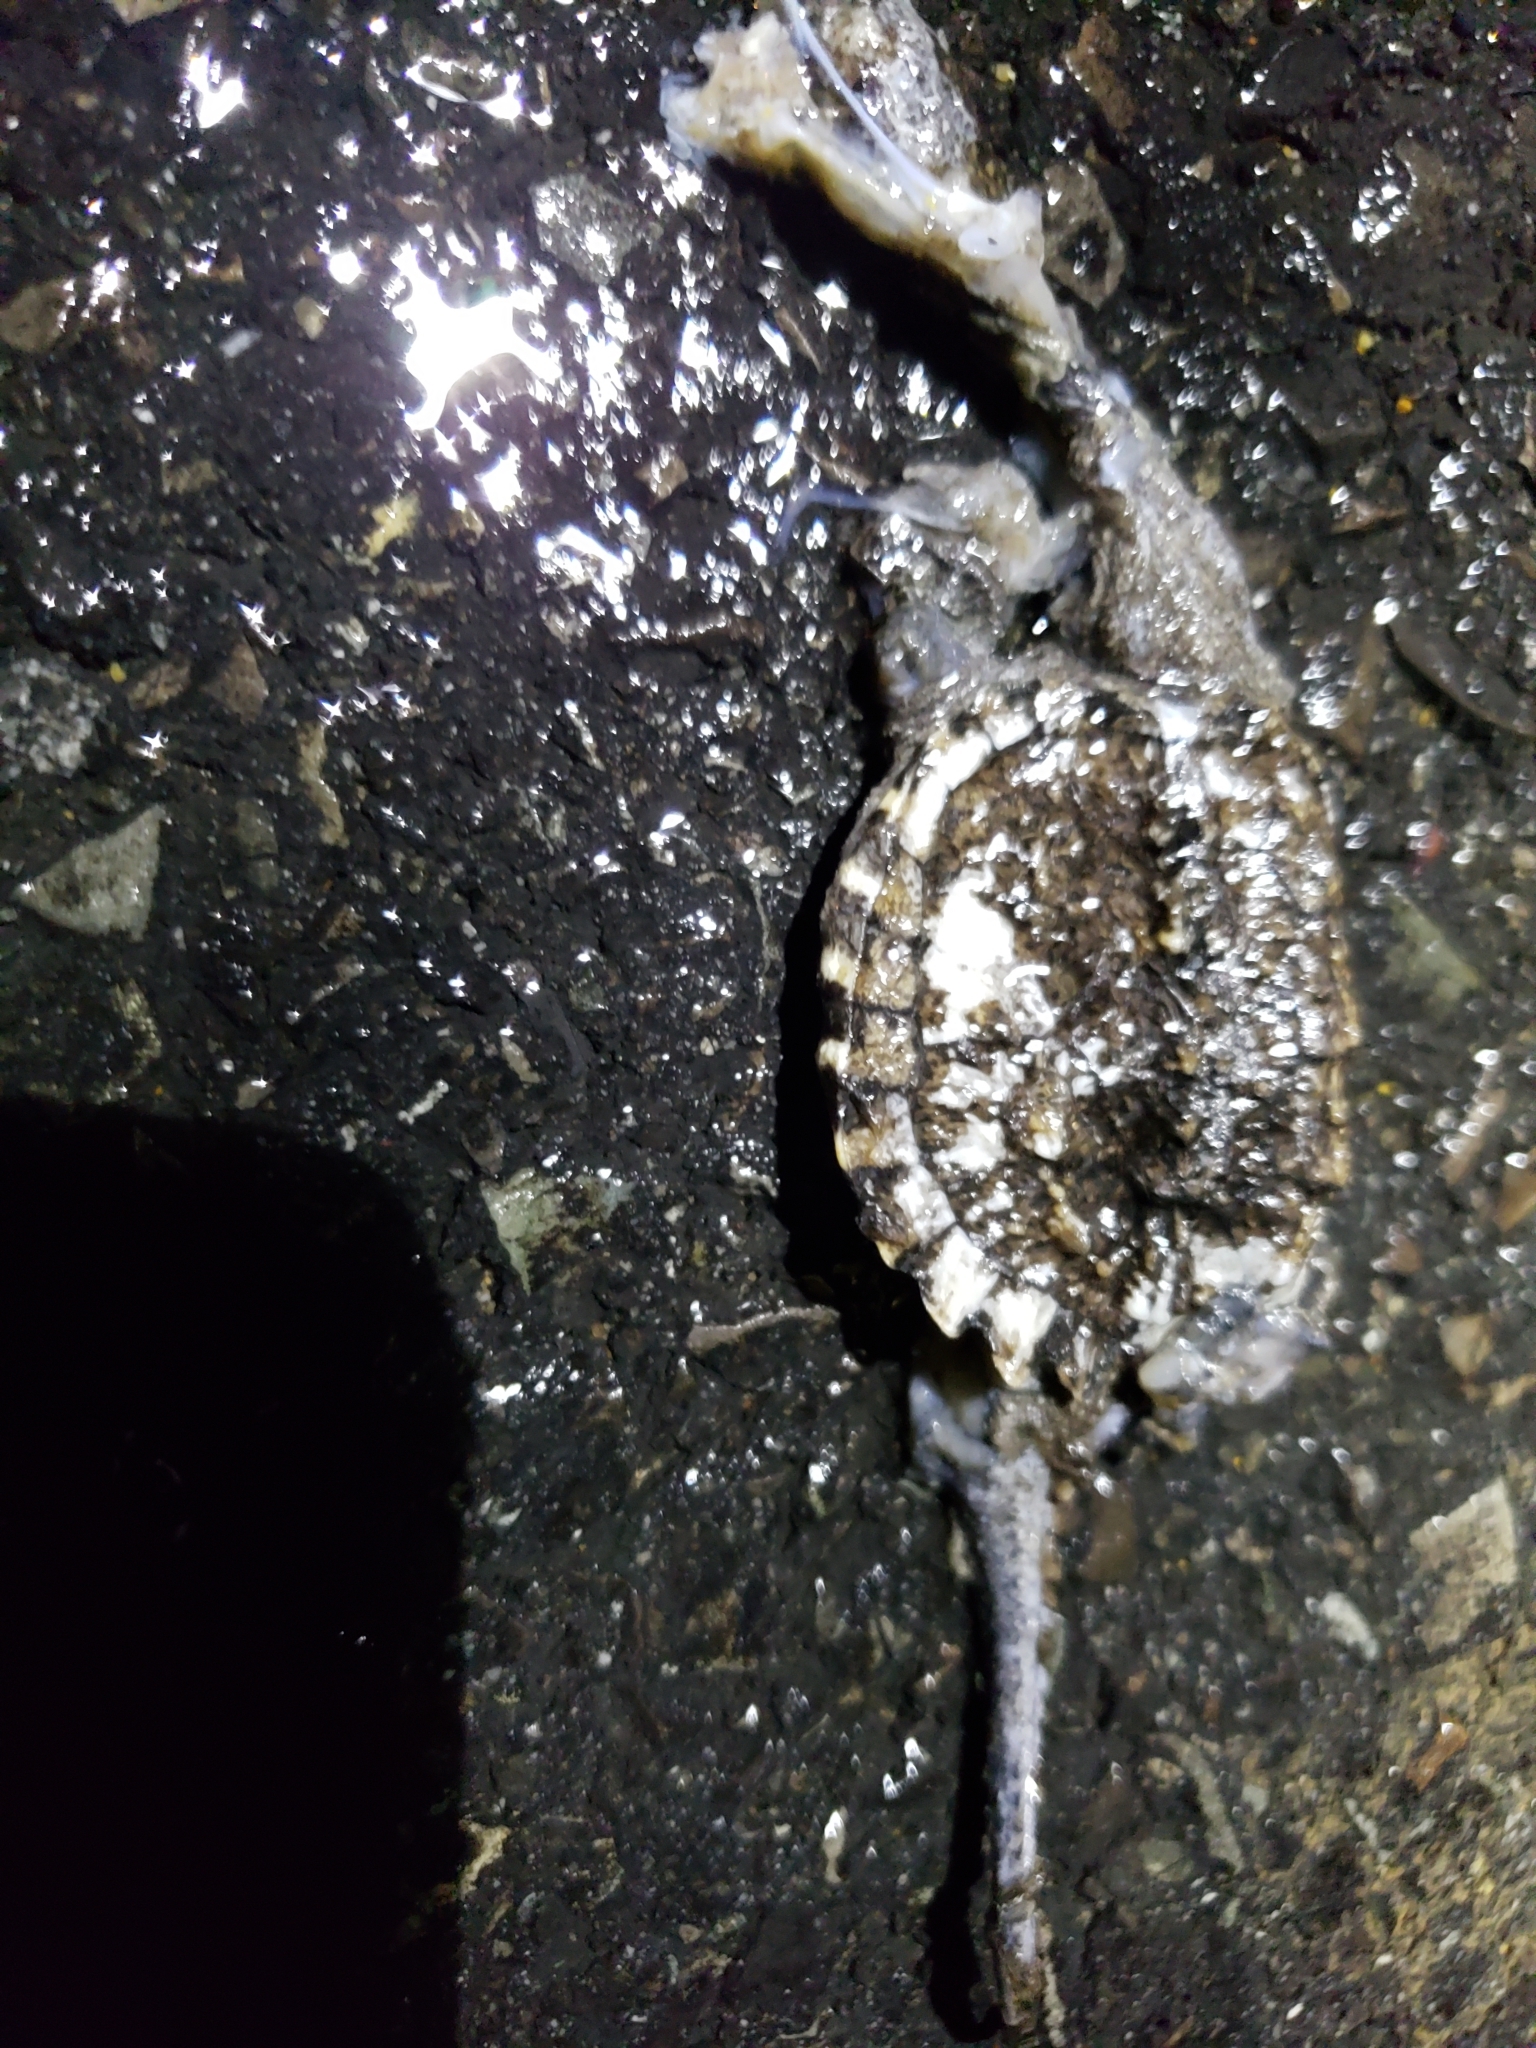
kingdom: Animalia
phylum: Chordata
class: Testudines
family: Chelydridae
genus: Chelydra
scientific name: Chelydra serpentina
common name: Common snapping turtle
